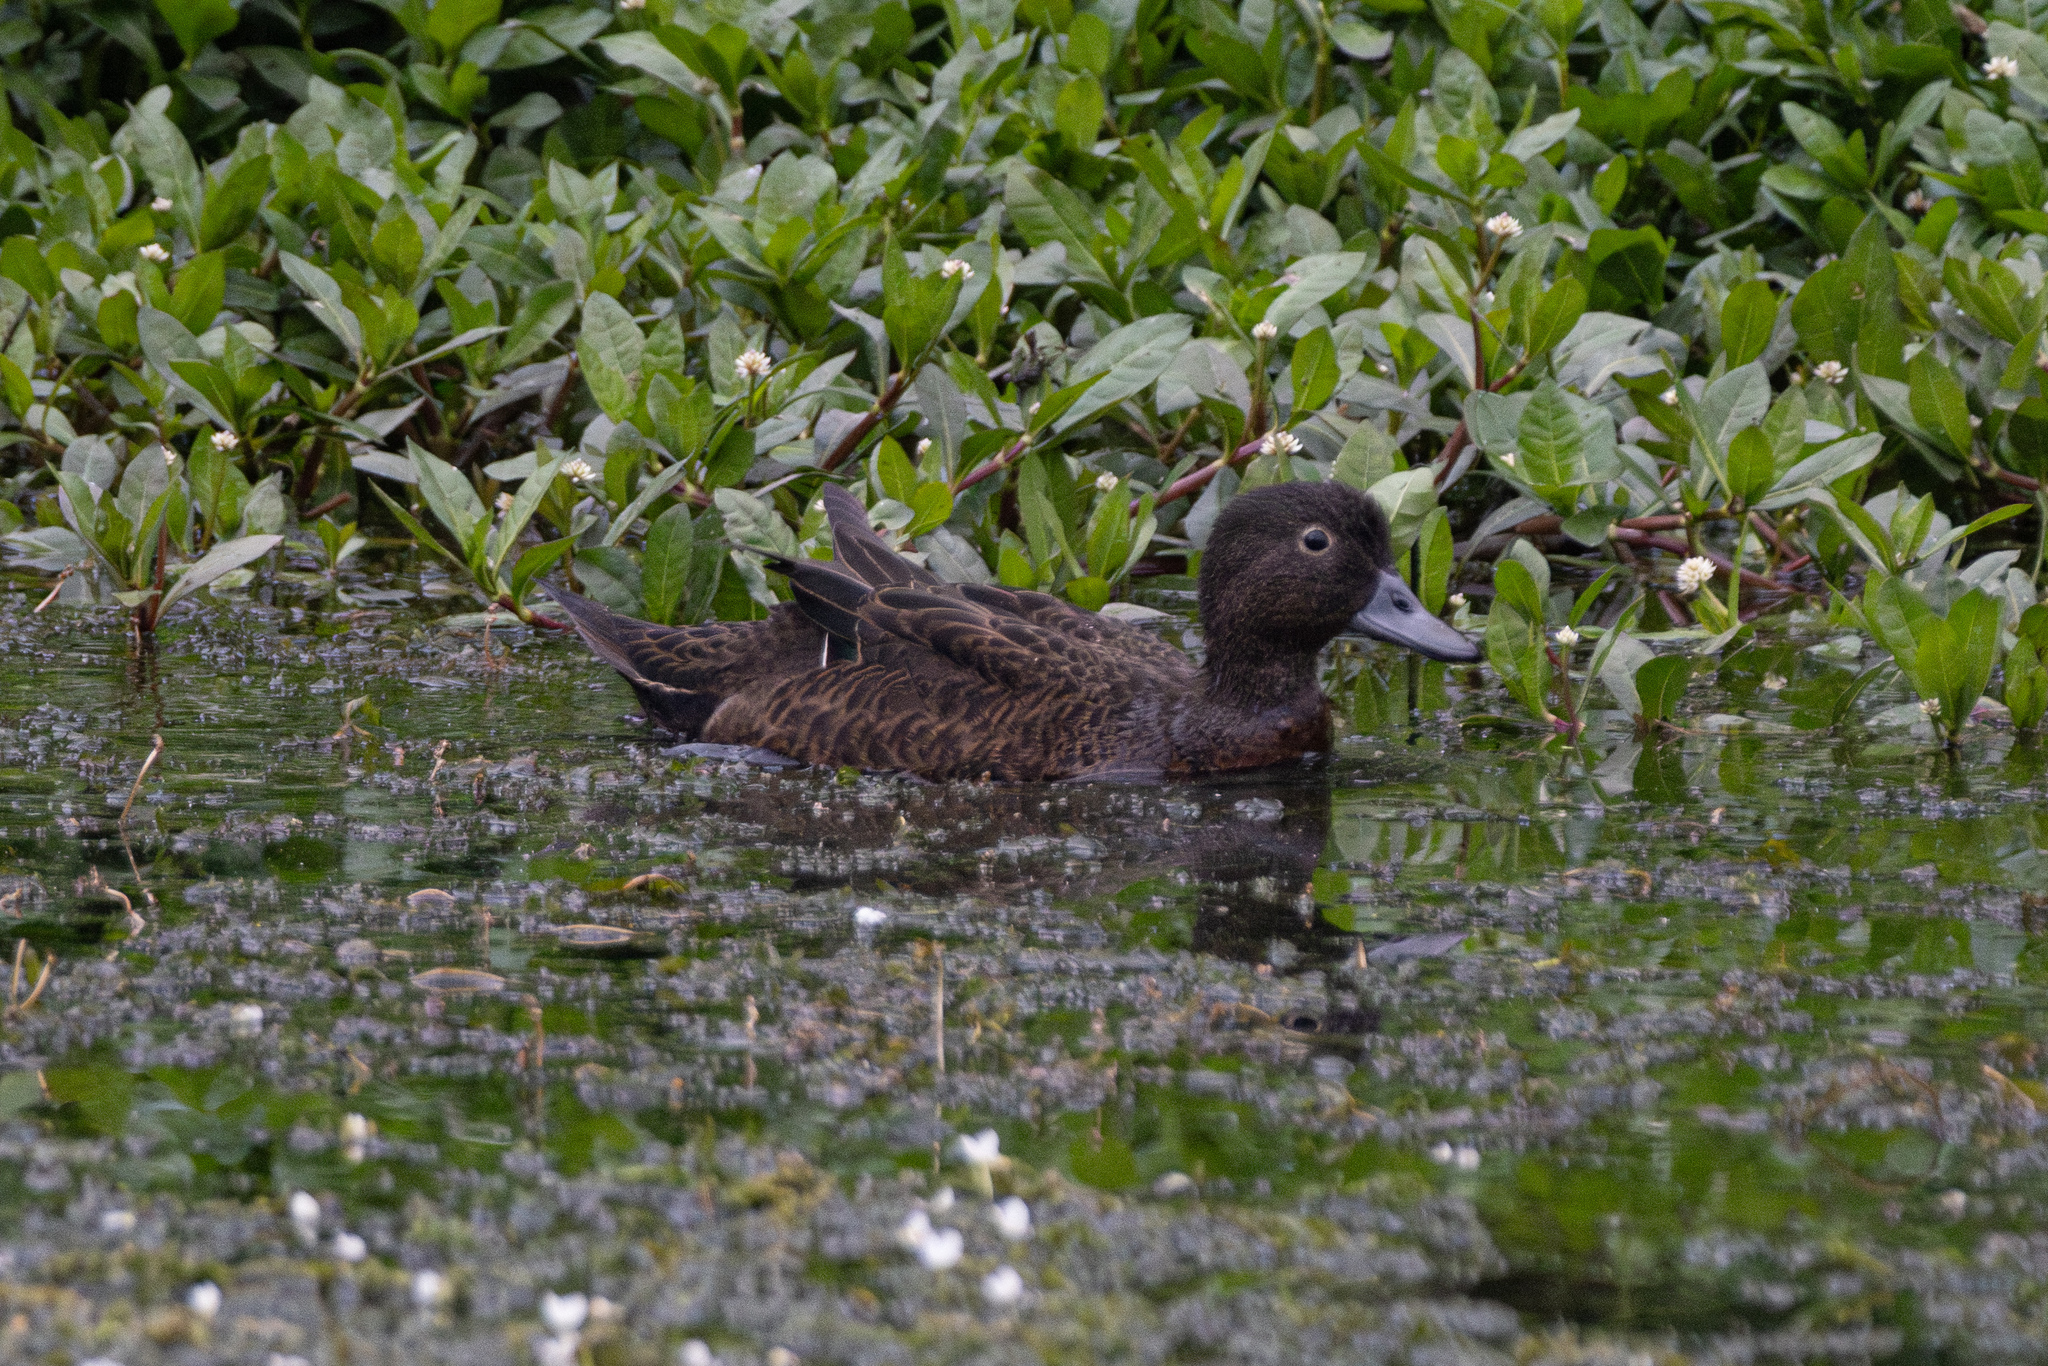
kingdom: Animalia
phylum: Chordata
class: Aves
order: Anseriformes
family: Anatidae
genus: Anas
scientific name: Anas chlorotis
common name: Brown teal
